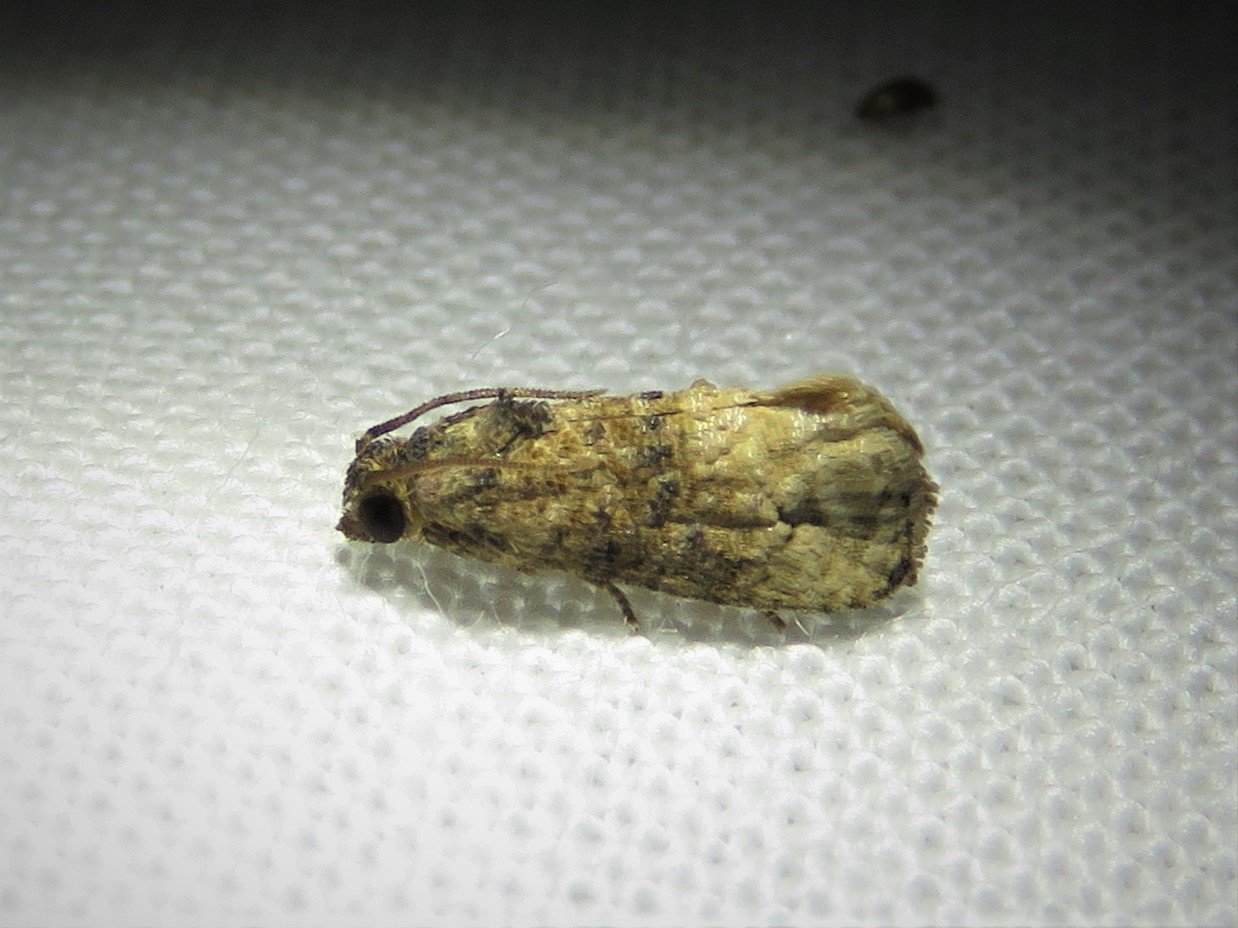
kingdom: Animalia
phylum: Arthropoda
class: Insecta
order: Lepidoptera
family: Tortricidae
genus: Ecdytolopha
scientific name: Ecdytolopha mana
